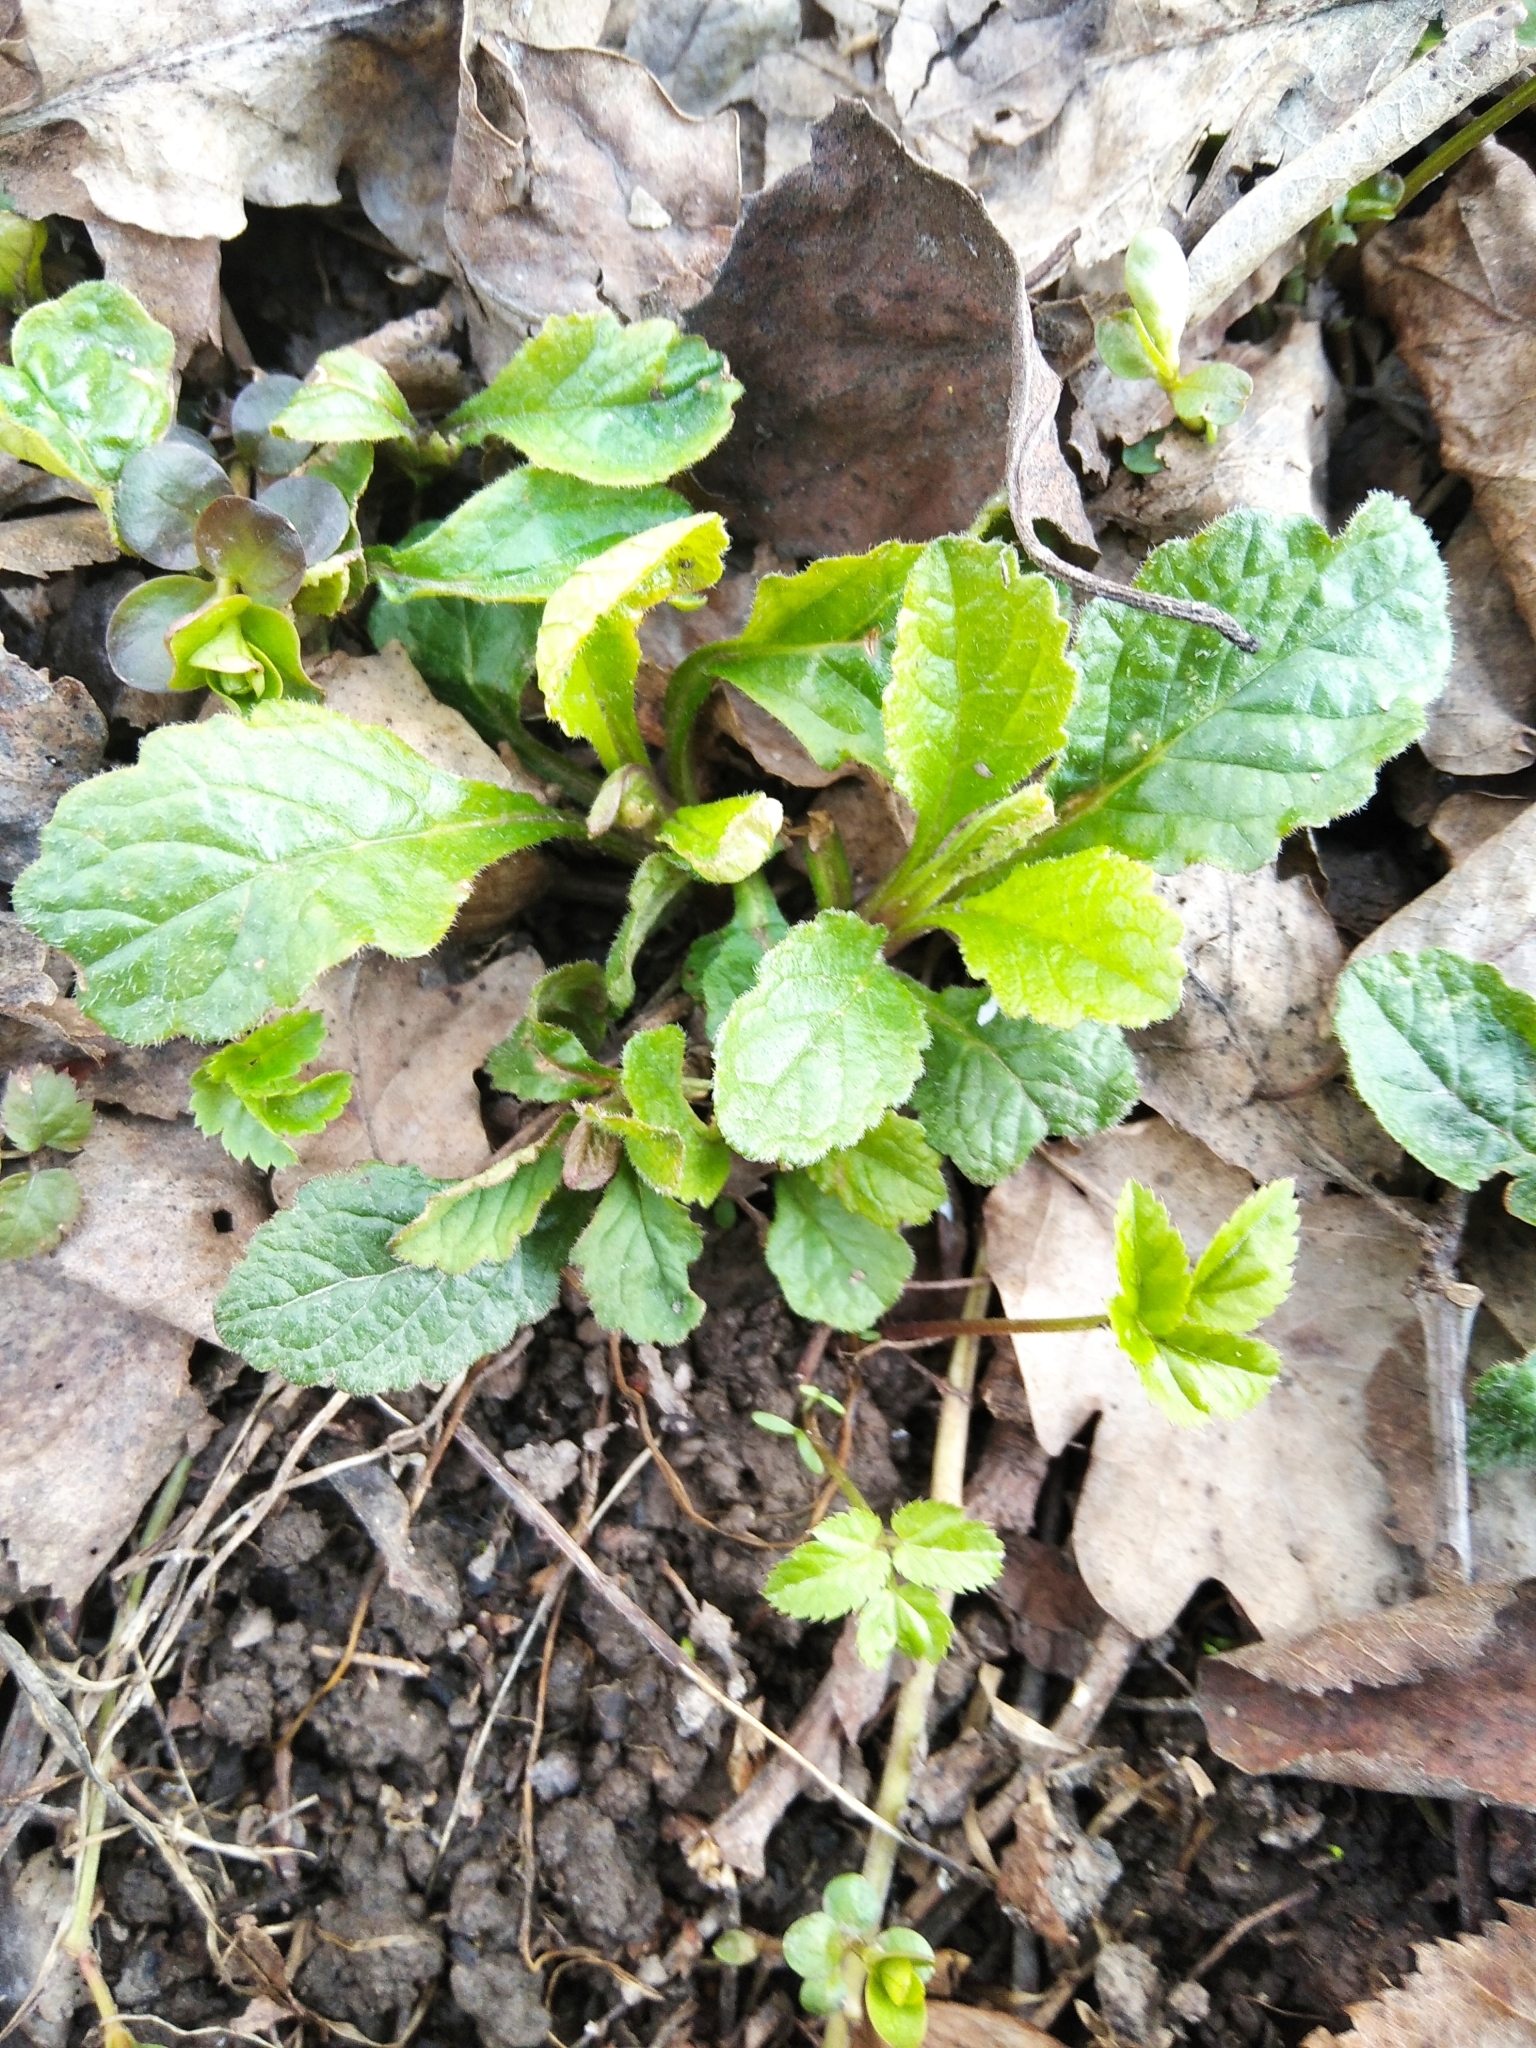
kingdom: Plantae
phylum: Tracheophyta
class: Magnoliopsida
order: Lamiales
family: Lamiaceae
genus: Ajuga
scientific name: Ajuga reptans
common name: Bugle
